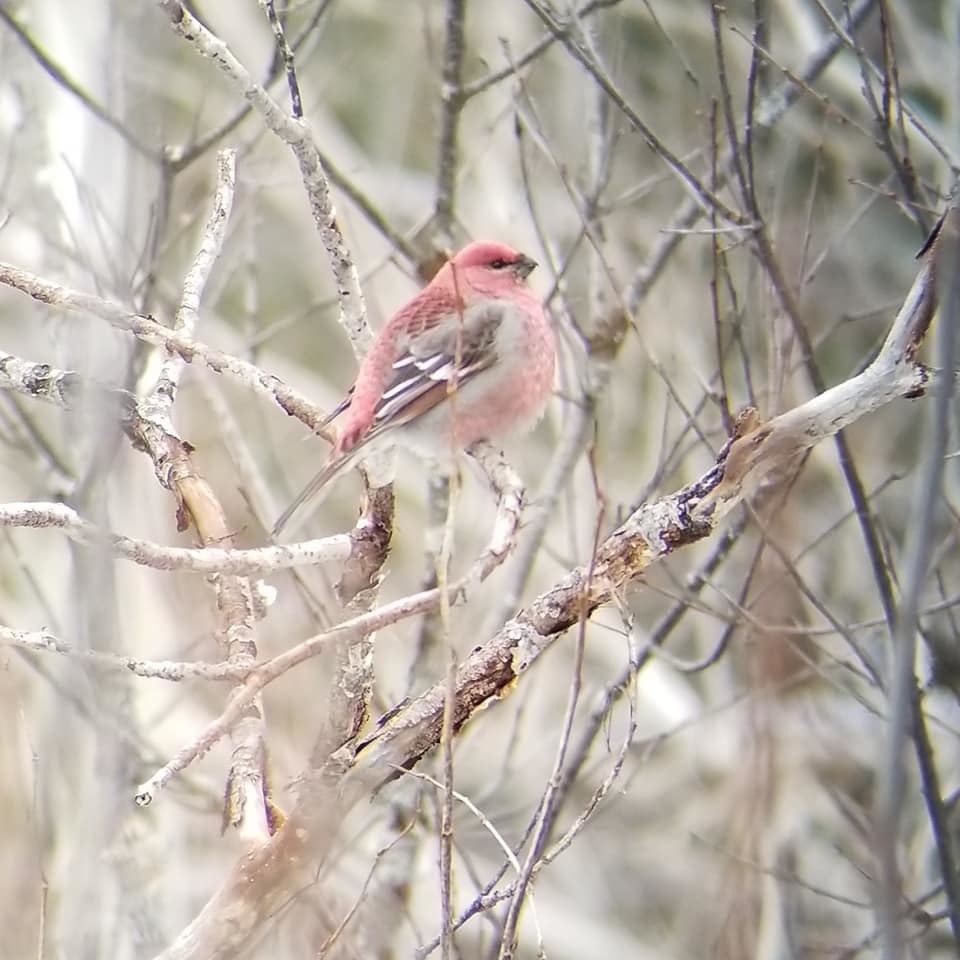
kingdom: Animalia
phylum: Chordata
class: Aves
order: Passeriformes
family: Fringillidae
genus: Pinicola
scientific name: Pinicola enucleator
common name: Pine grosbeak
